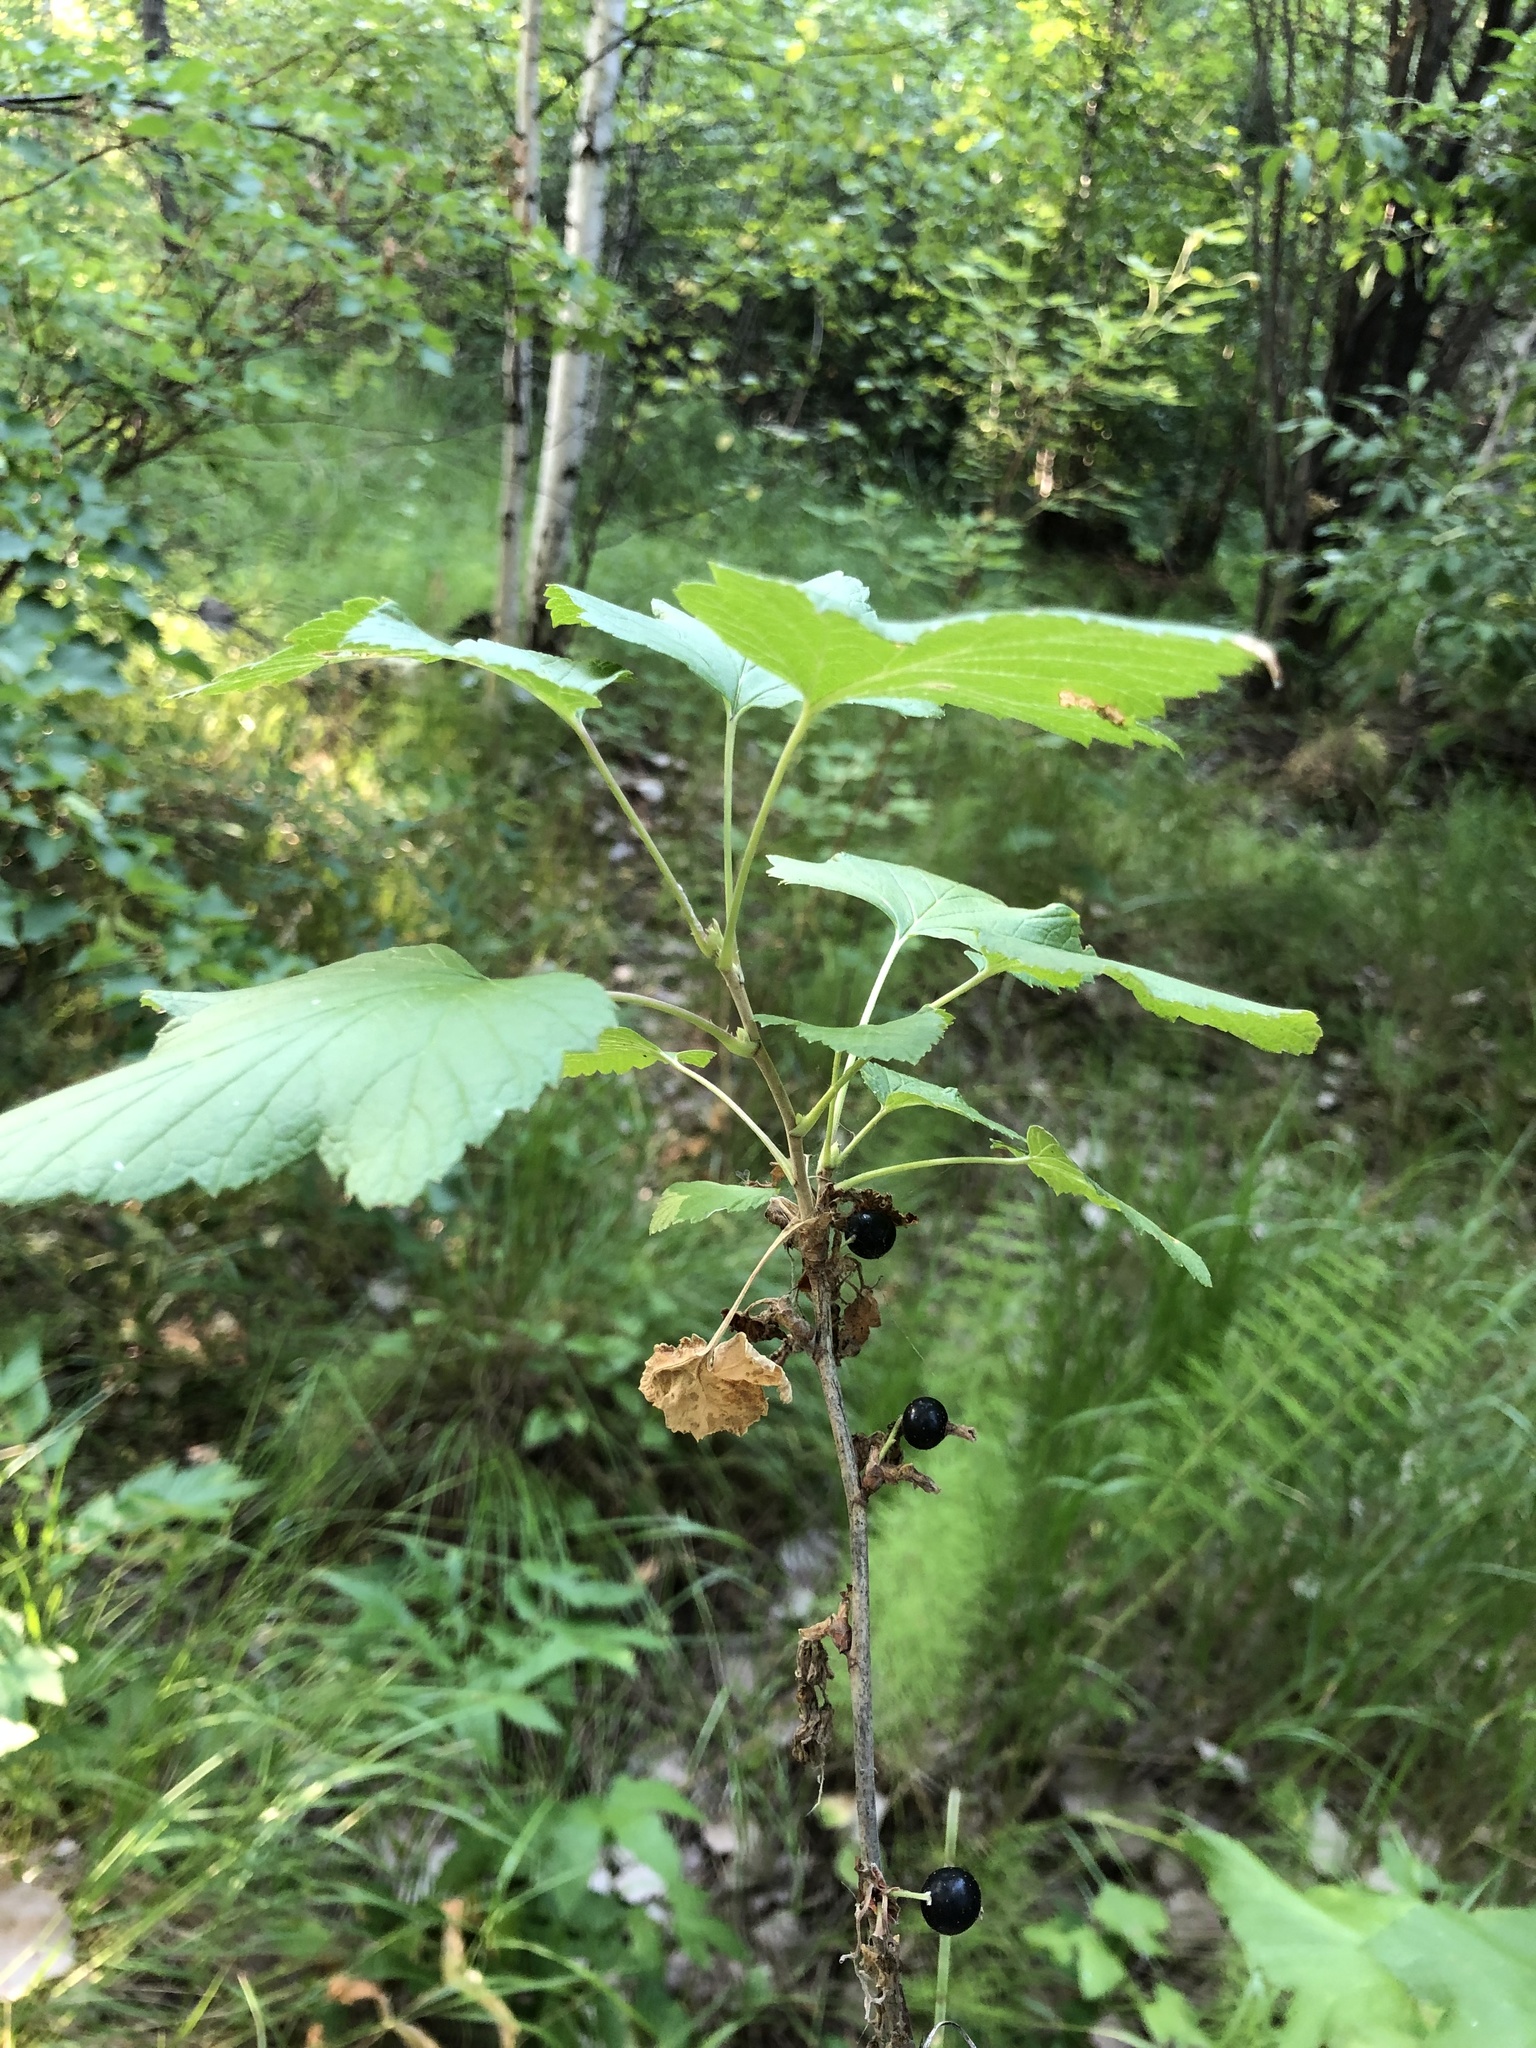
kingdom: Plantae
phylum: Tracheophyta
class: Magnoliopsida
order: Saxifragales
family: Grossulariaceae
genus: Ribes
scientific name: Ribes nigrum
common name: Black currant
